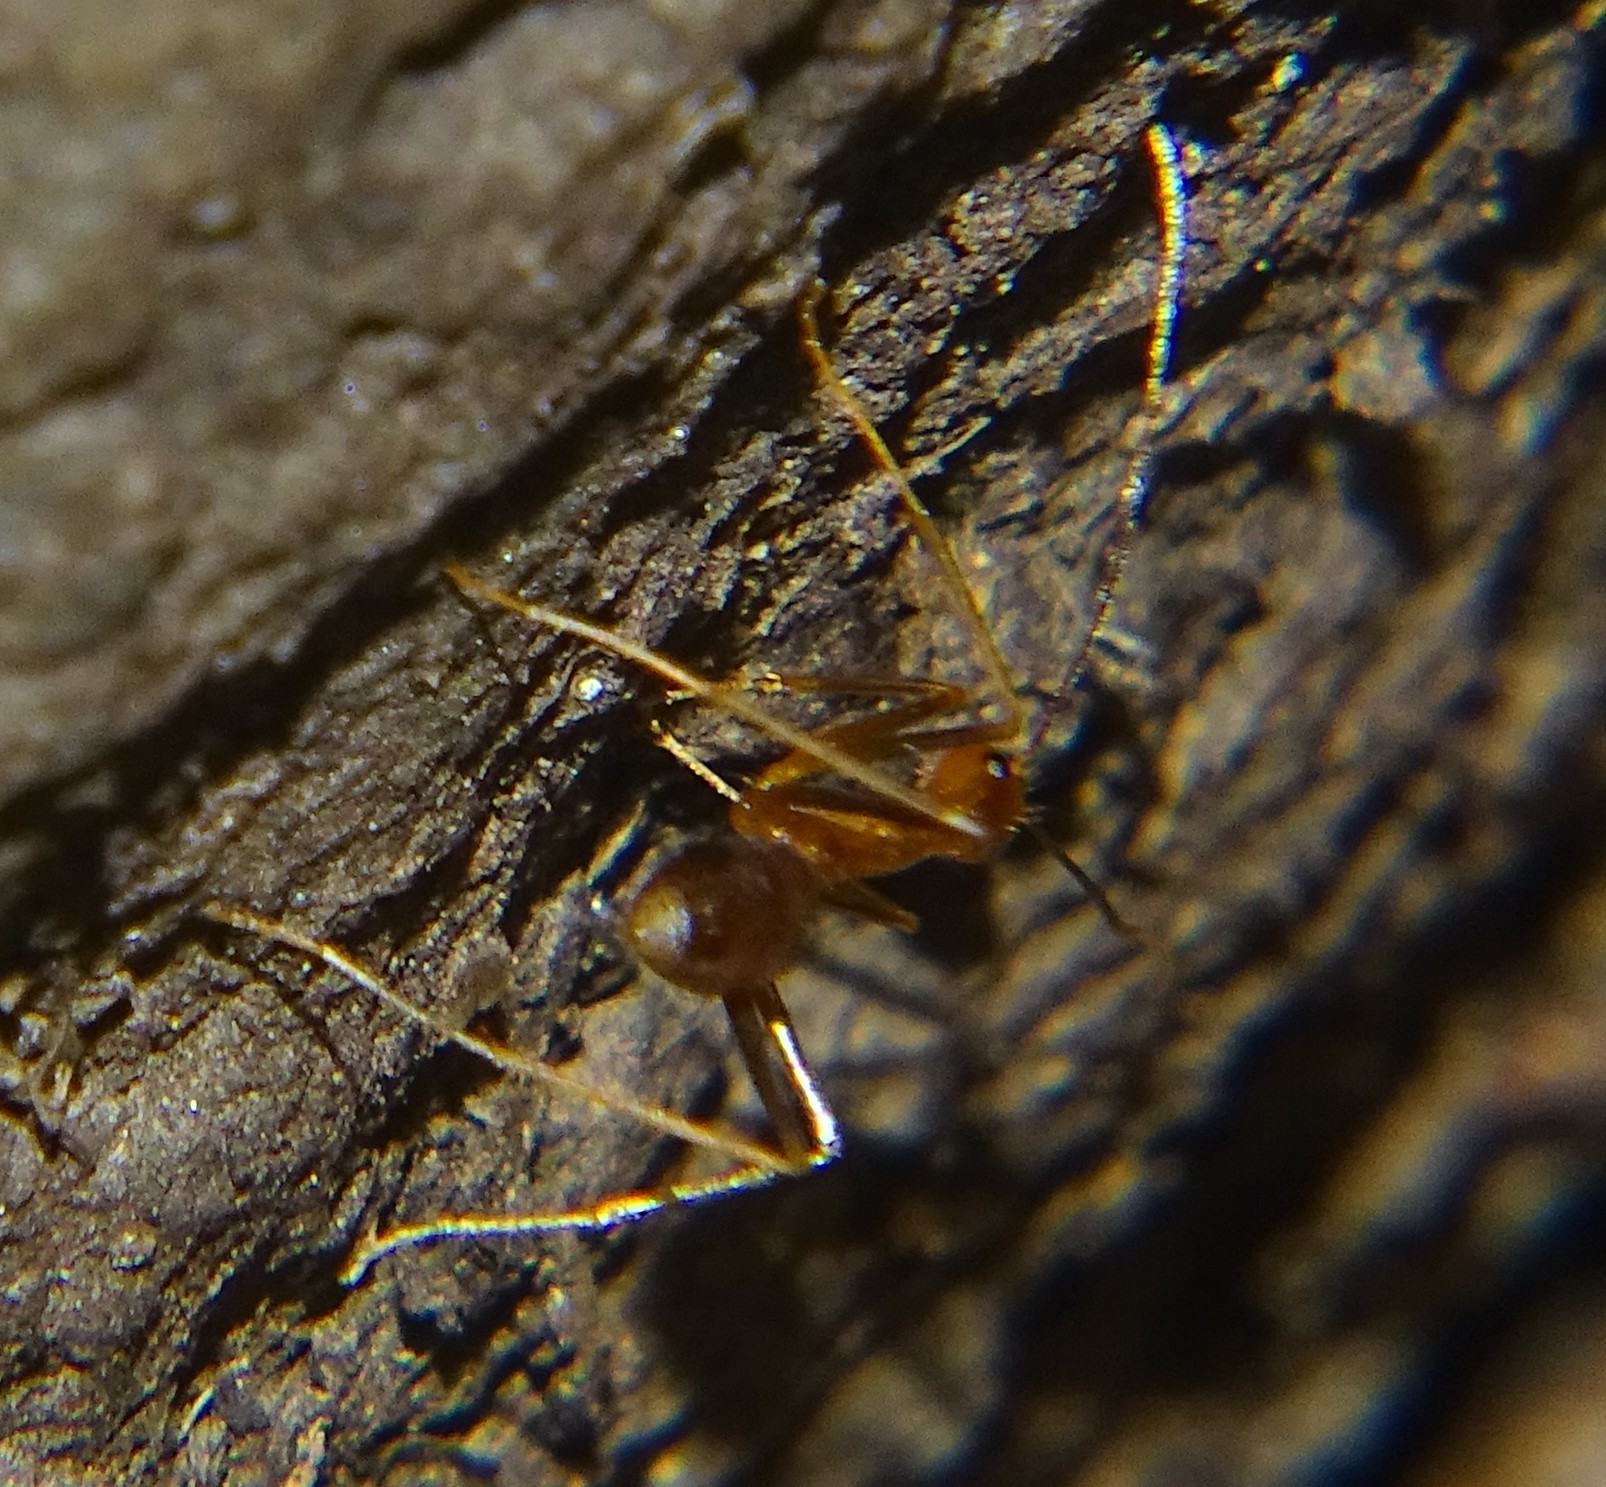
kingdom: Animalia
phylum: Arthropoda
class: Insecta
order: Hymenoptera
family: Formicidae
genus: Anoplolepis
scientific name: Anoplolepis gracilipes
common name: Ant
